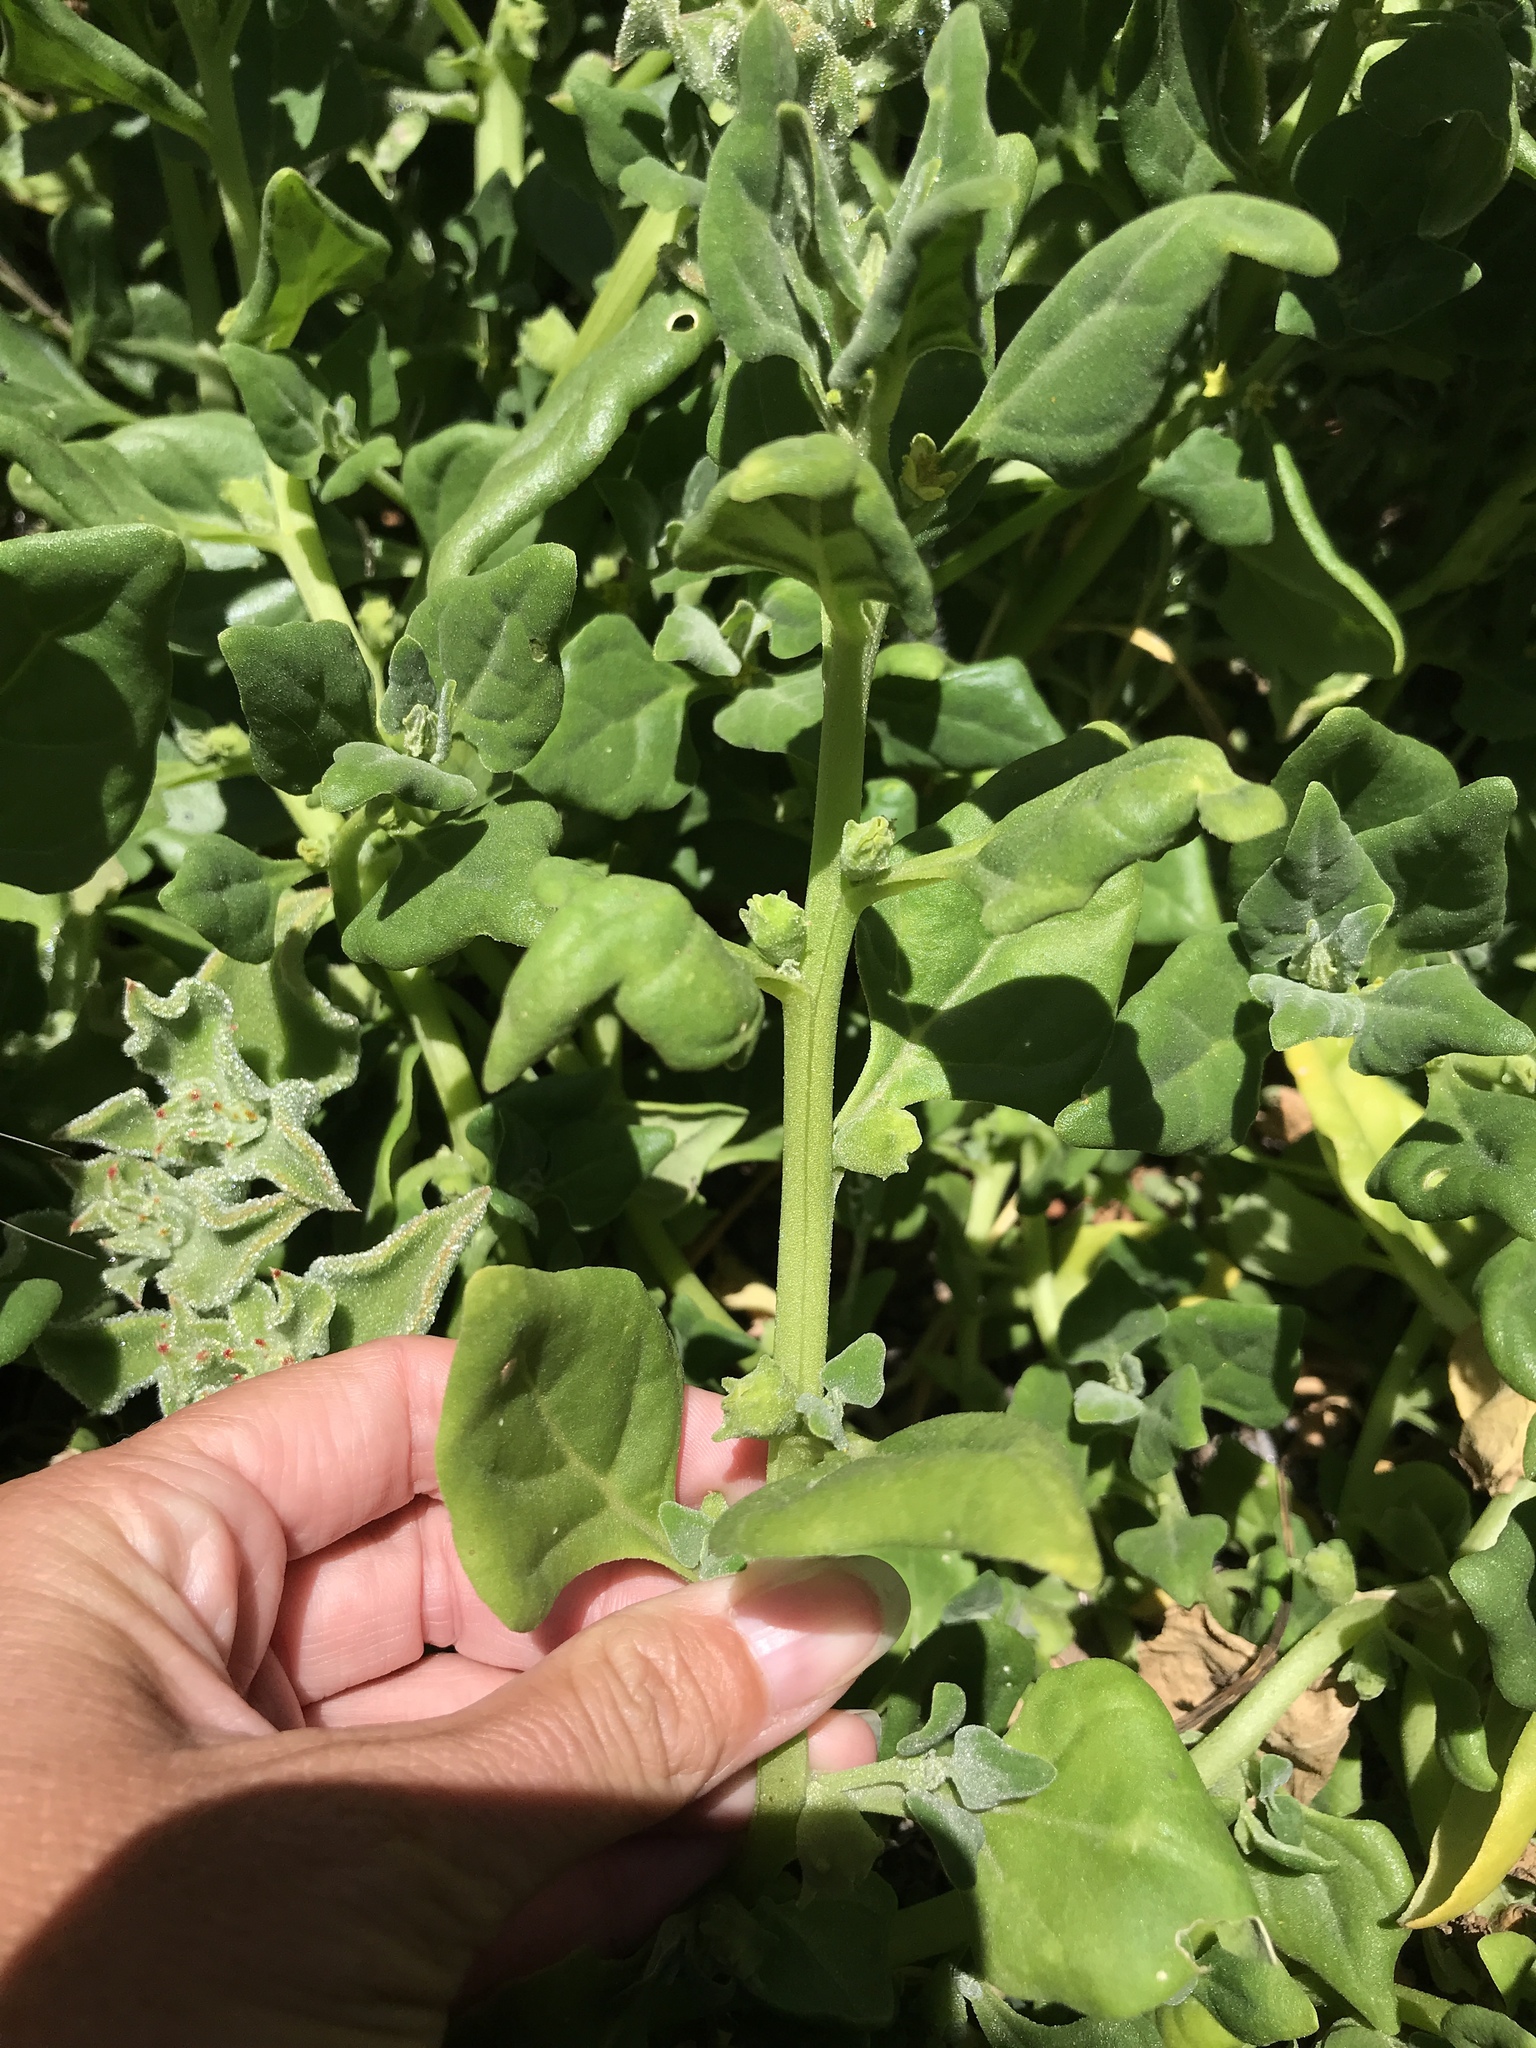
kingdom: Plantae
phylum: Tracheophyta
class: Magnoliopsida
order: Caryophyllales
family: Aizoaceae
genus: Tetragonia
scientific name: Tetragonia tetragonoides
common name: New zealand-spinach
